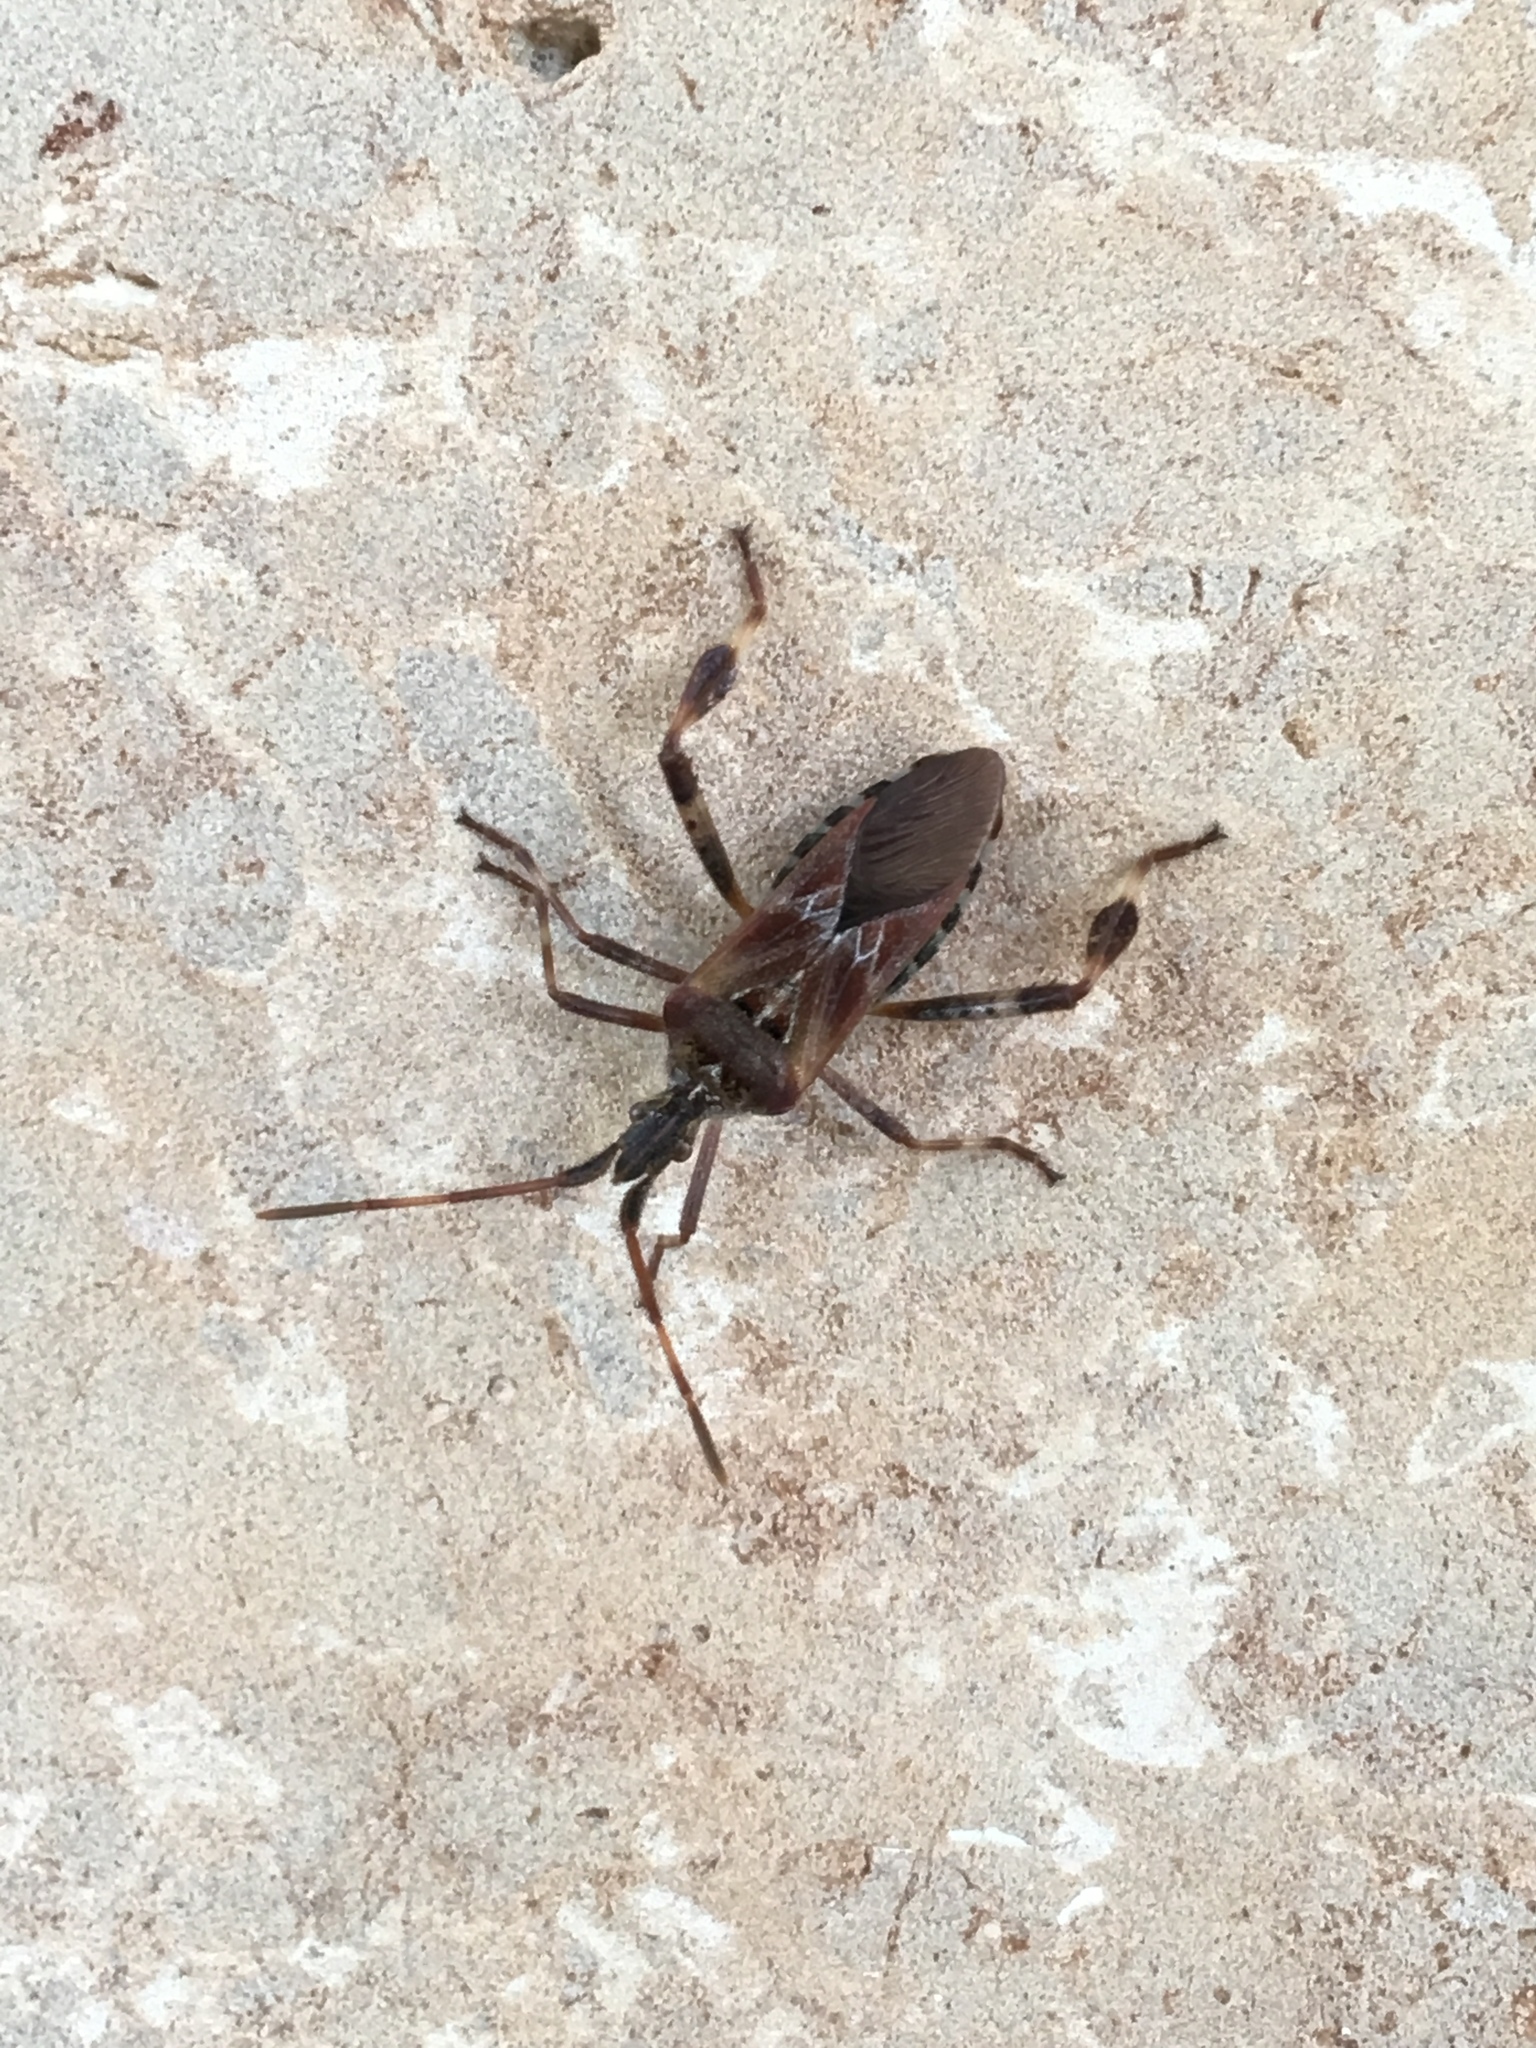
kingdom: Animalia
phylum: Arthropoda
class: Insecta
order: Hemiptera
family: Coreidae
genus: Leptoglossus
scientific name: Leptoglossus occidentalis
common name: Western conifer-seed bug
